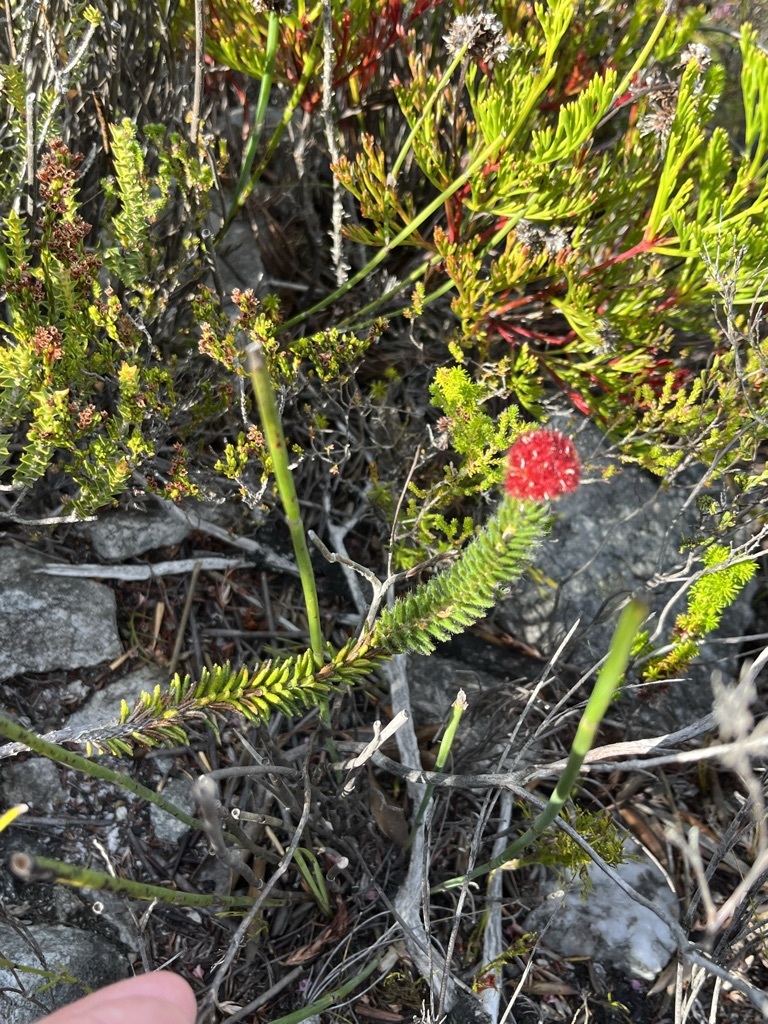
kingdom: Plantae
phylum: Tracheophyta
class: Magnoliopsida
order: Ericales
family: Ericaceae
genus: Erica
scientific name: Erica cerinthoides
